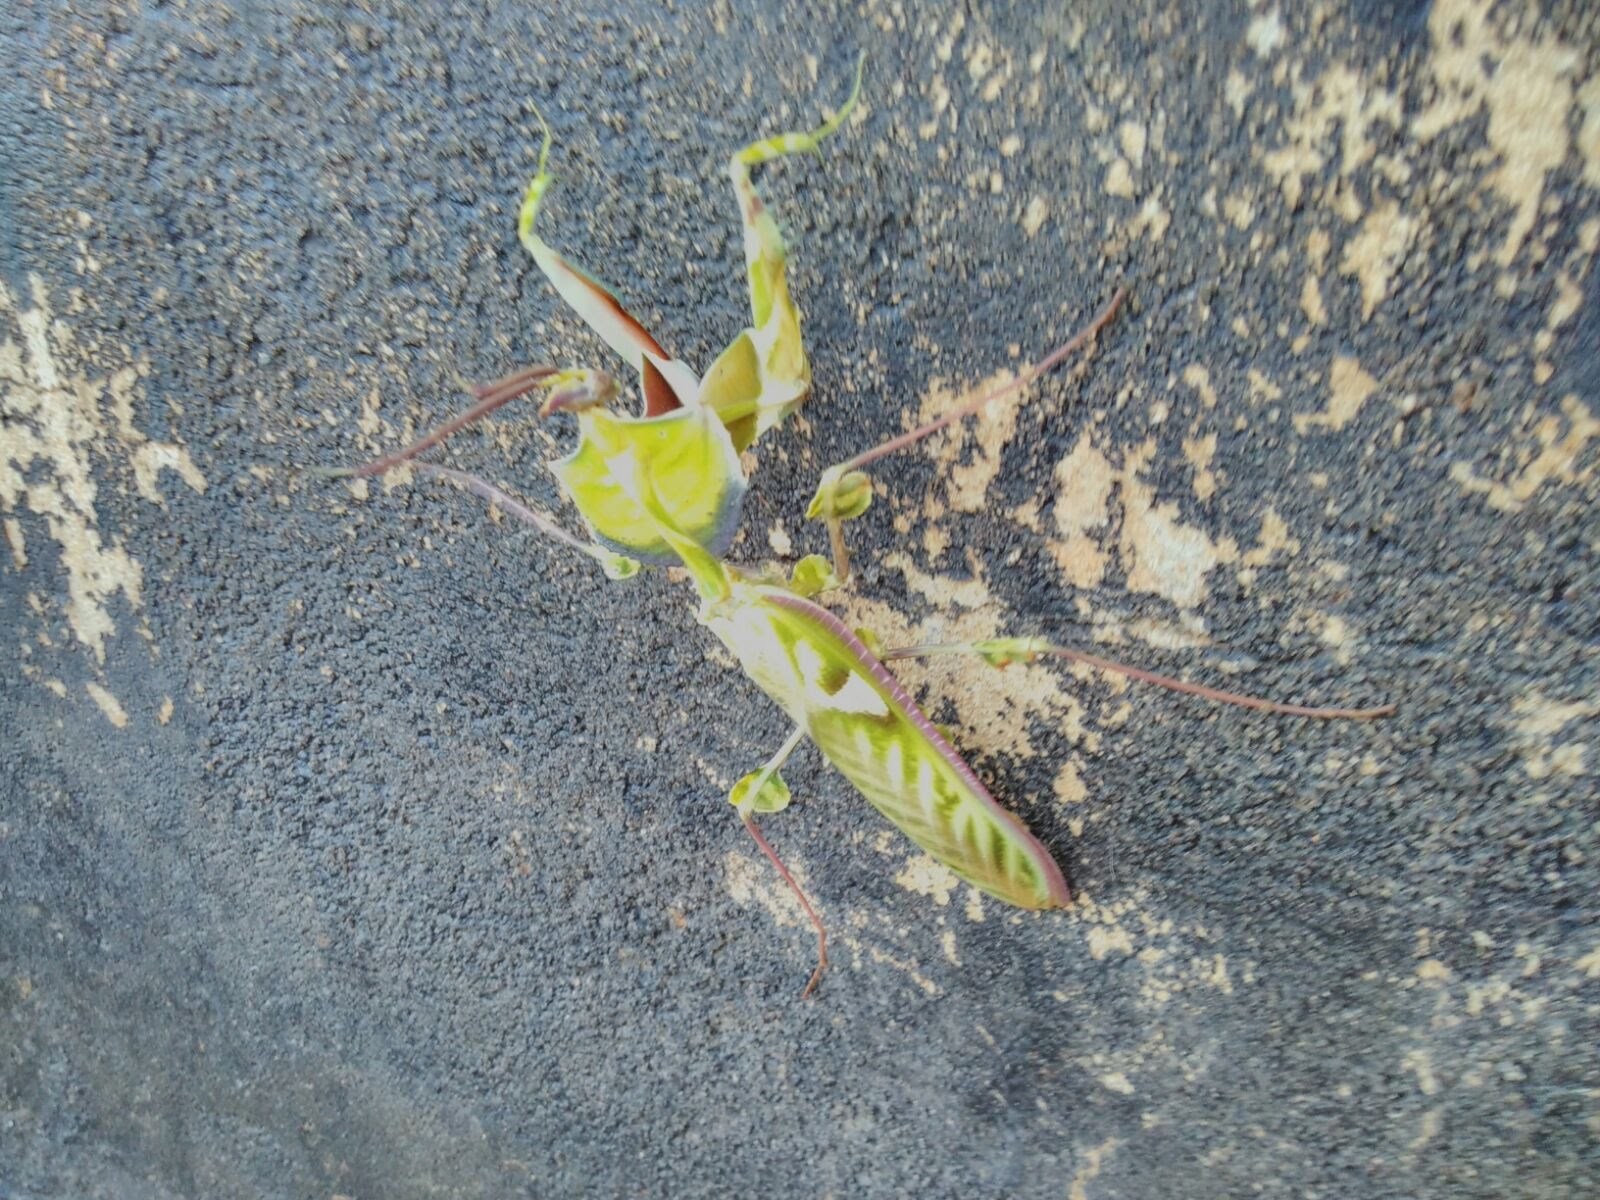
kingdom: Animalia
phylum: Arthropoda
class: Insecta
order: Mantodea
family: Empusidae
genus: Idolomantis
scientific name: Idolomantis diabolica
